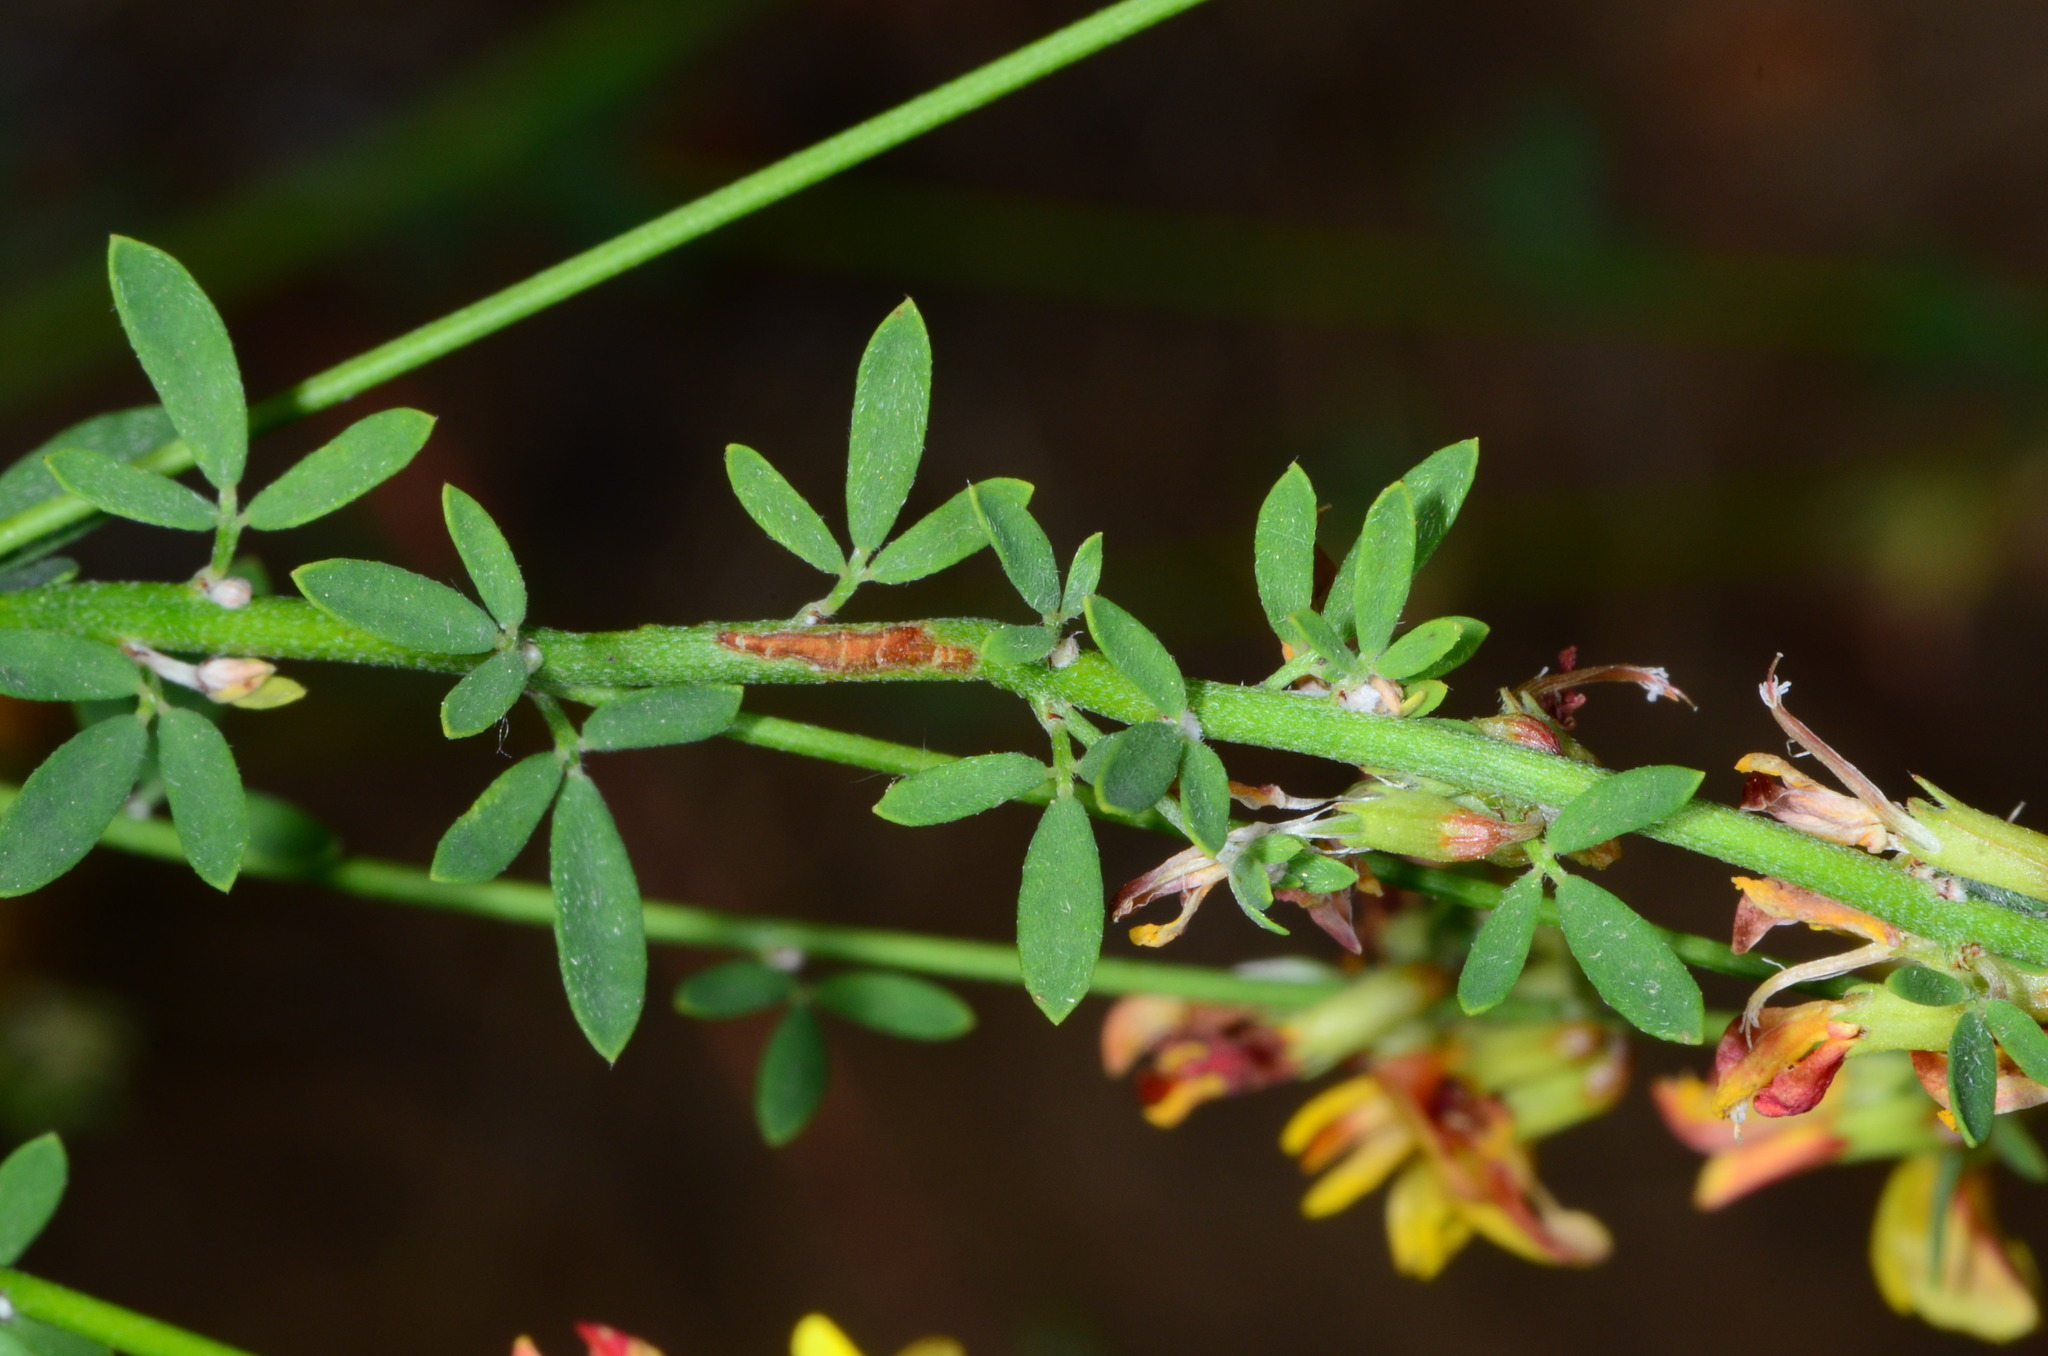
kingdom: Plantae
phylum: Tracheophyta
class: Magnoliopsida
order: Fabales
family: Fabaceae
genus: Acmispon
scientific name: Acmispon glaber
